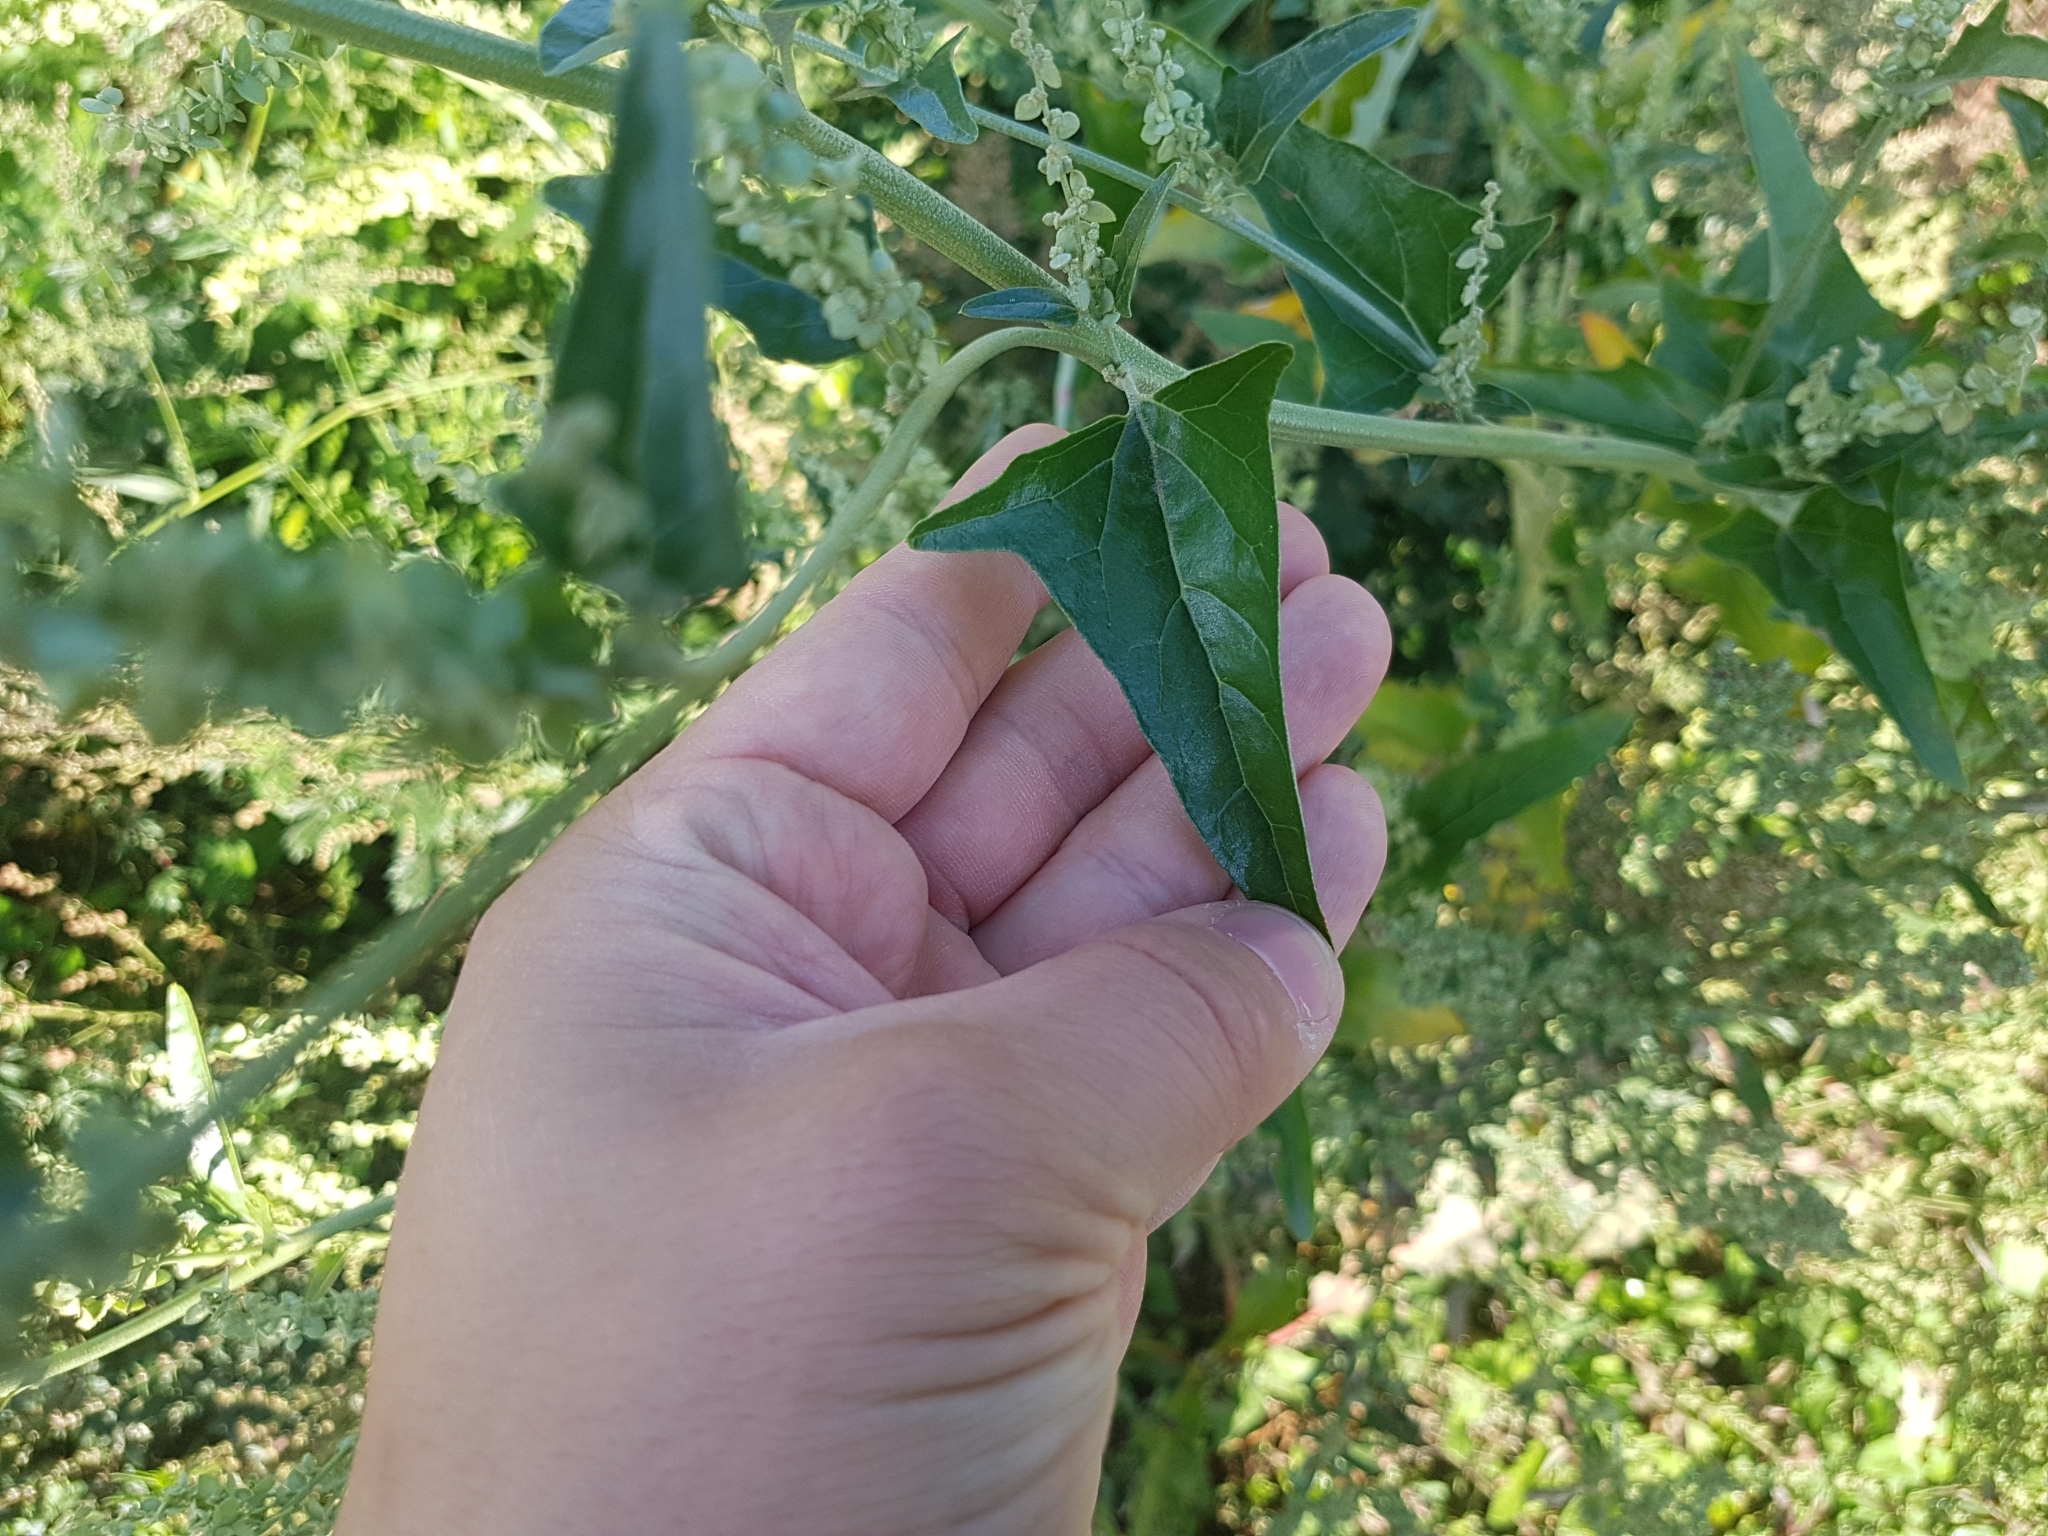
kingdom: Plantae
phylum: Tracheophyta
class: Magnoliopsida
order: Caryophyllales
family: Amaranthaceae
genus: Atriplex
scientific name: Atriplex sagittata
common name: Purple orache
